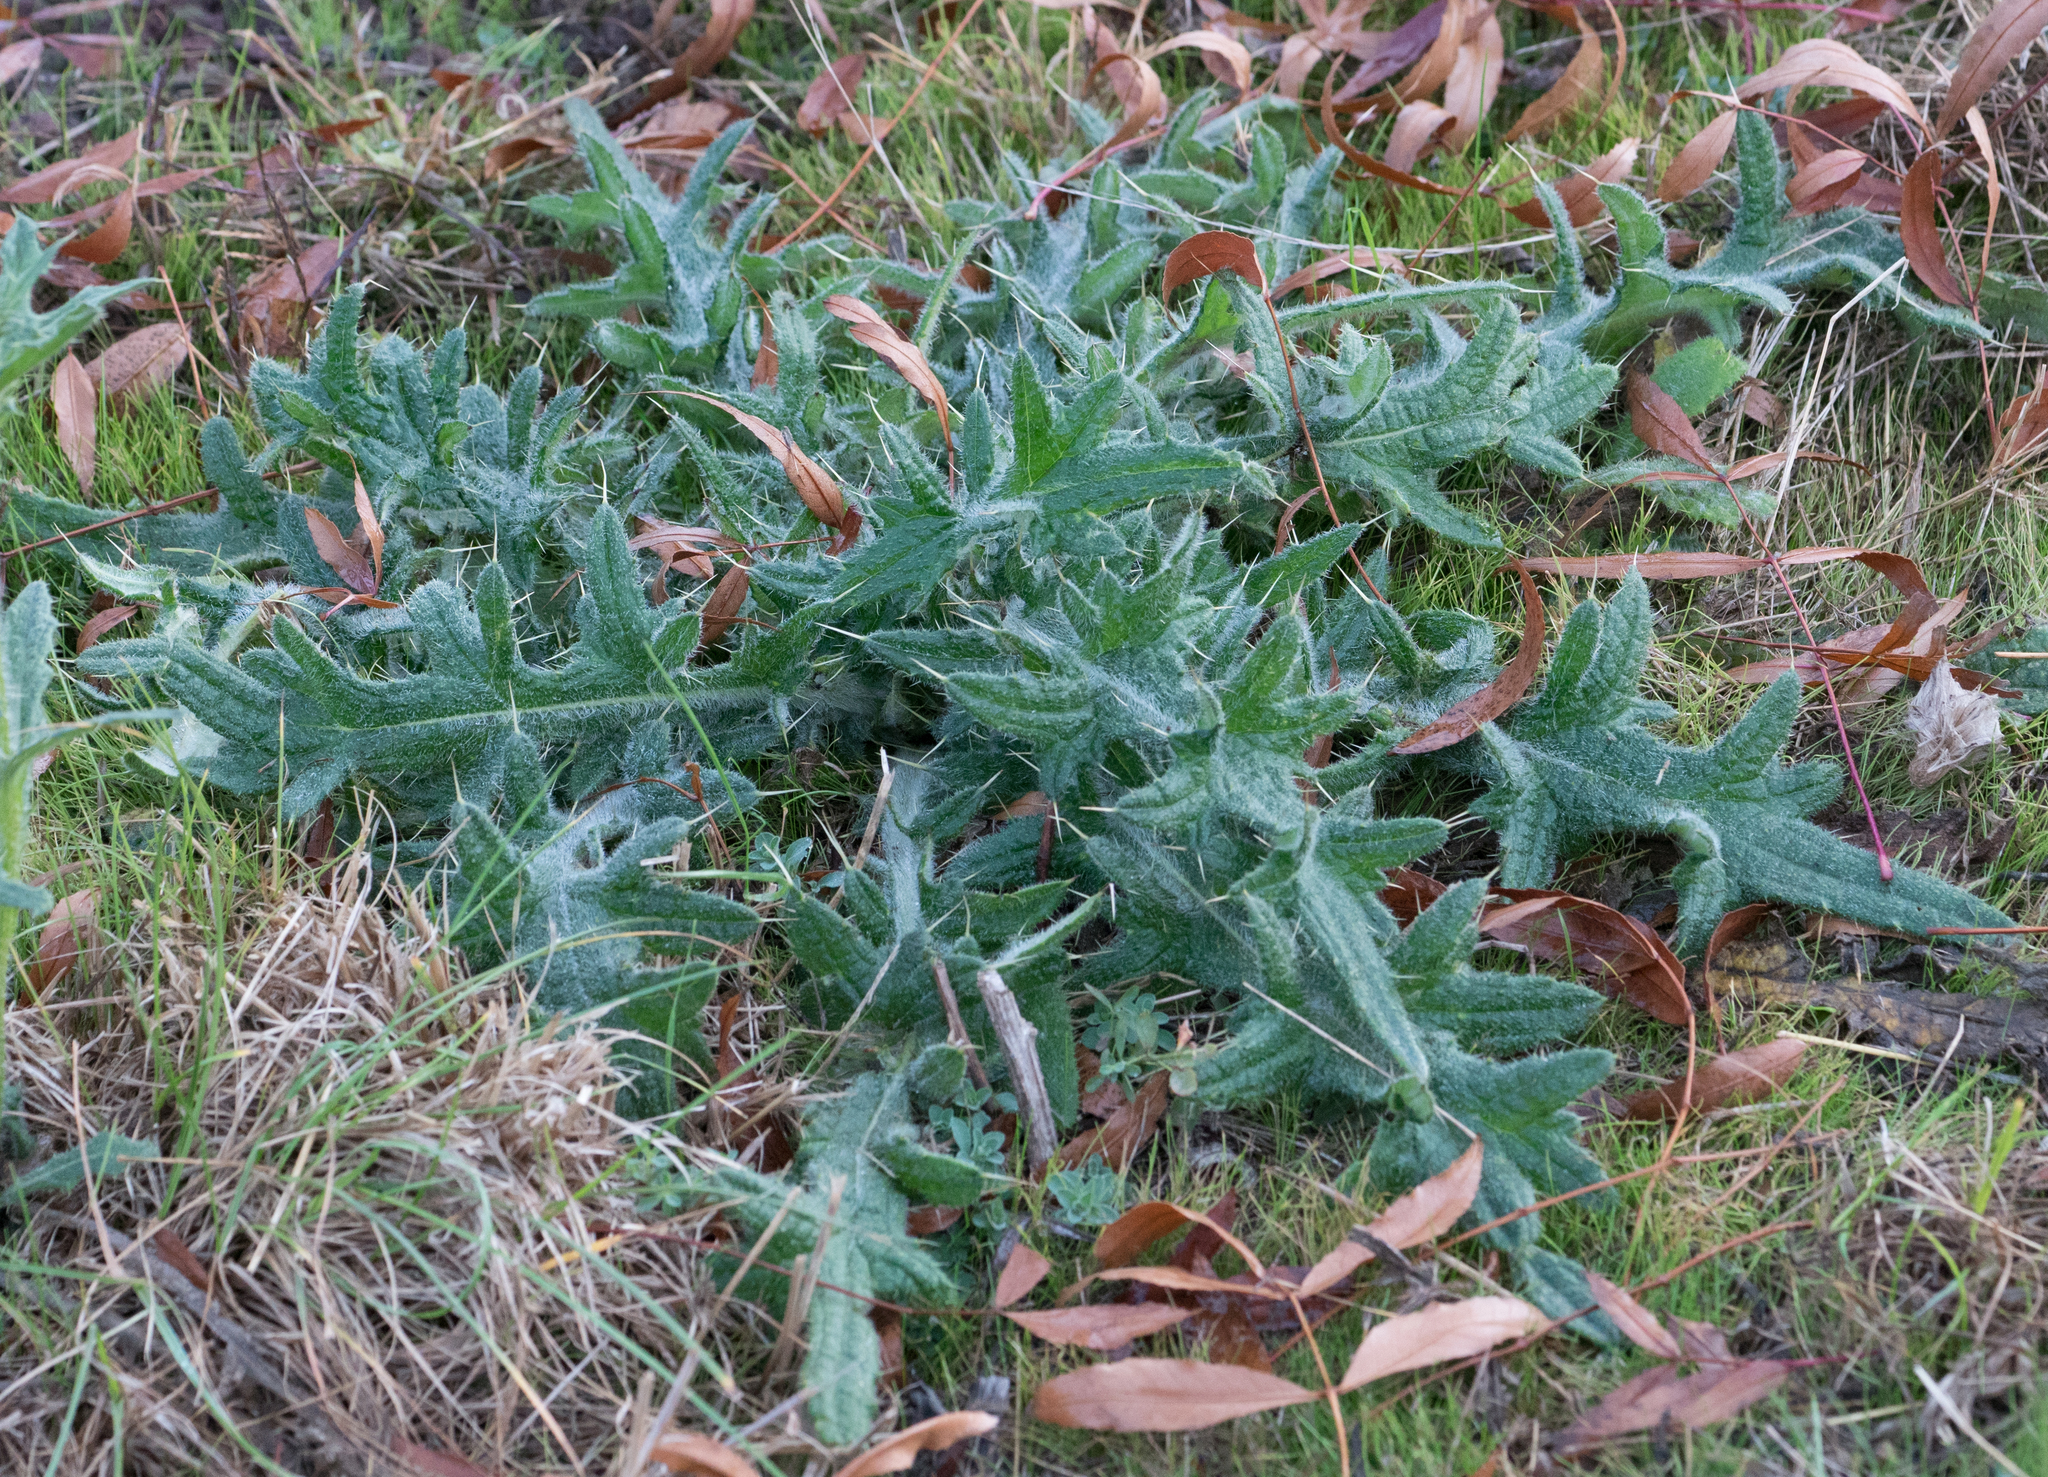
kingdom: Plantae
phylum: Tracheophyta
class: Magnoliopsida
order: Asterales
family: Asteraceae
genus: Cirsium
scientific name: Cirsium vulgare
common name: Bull thistle
